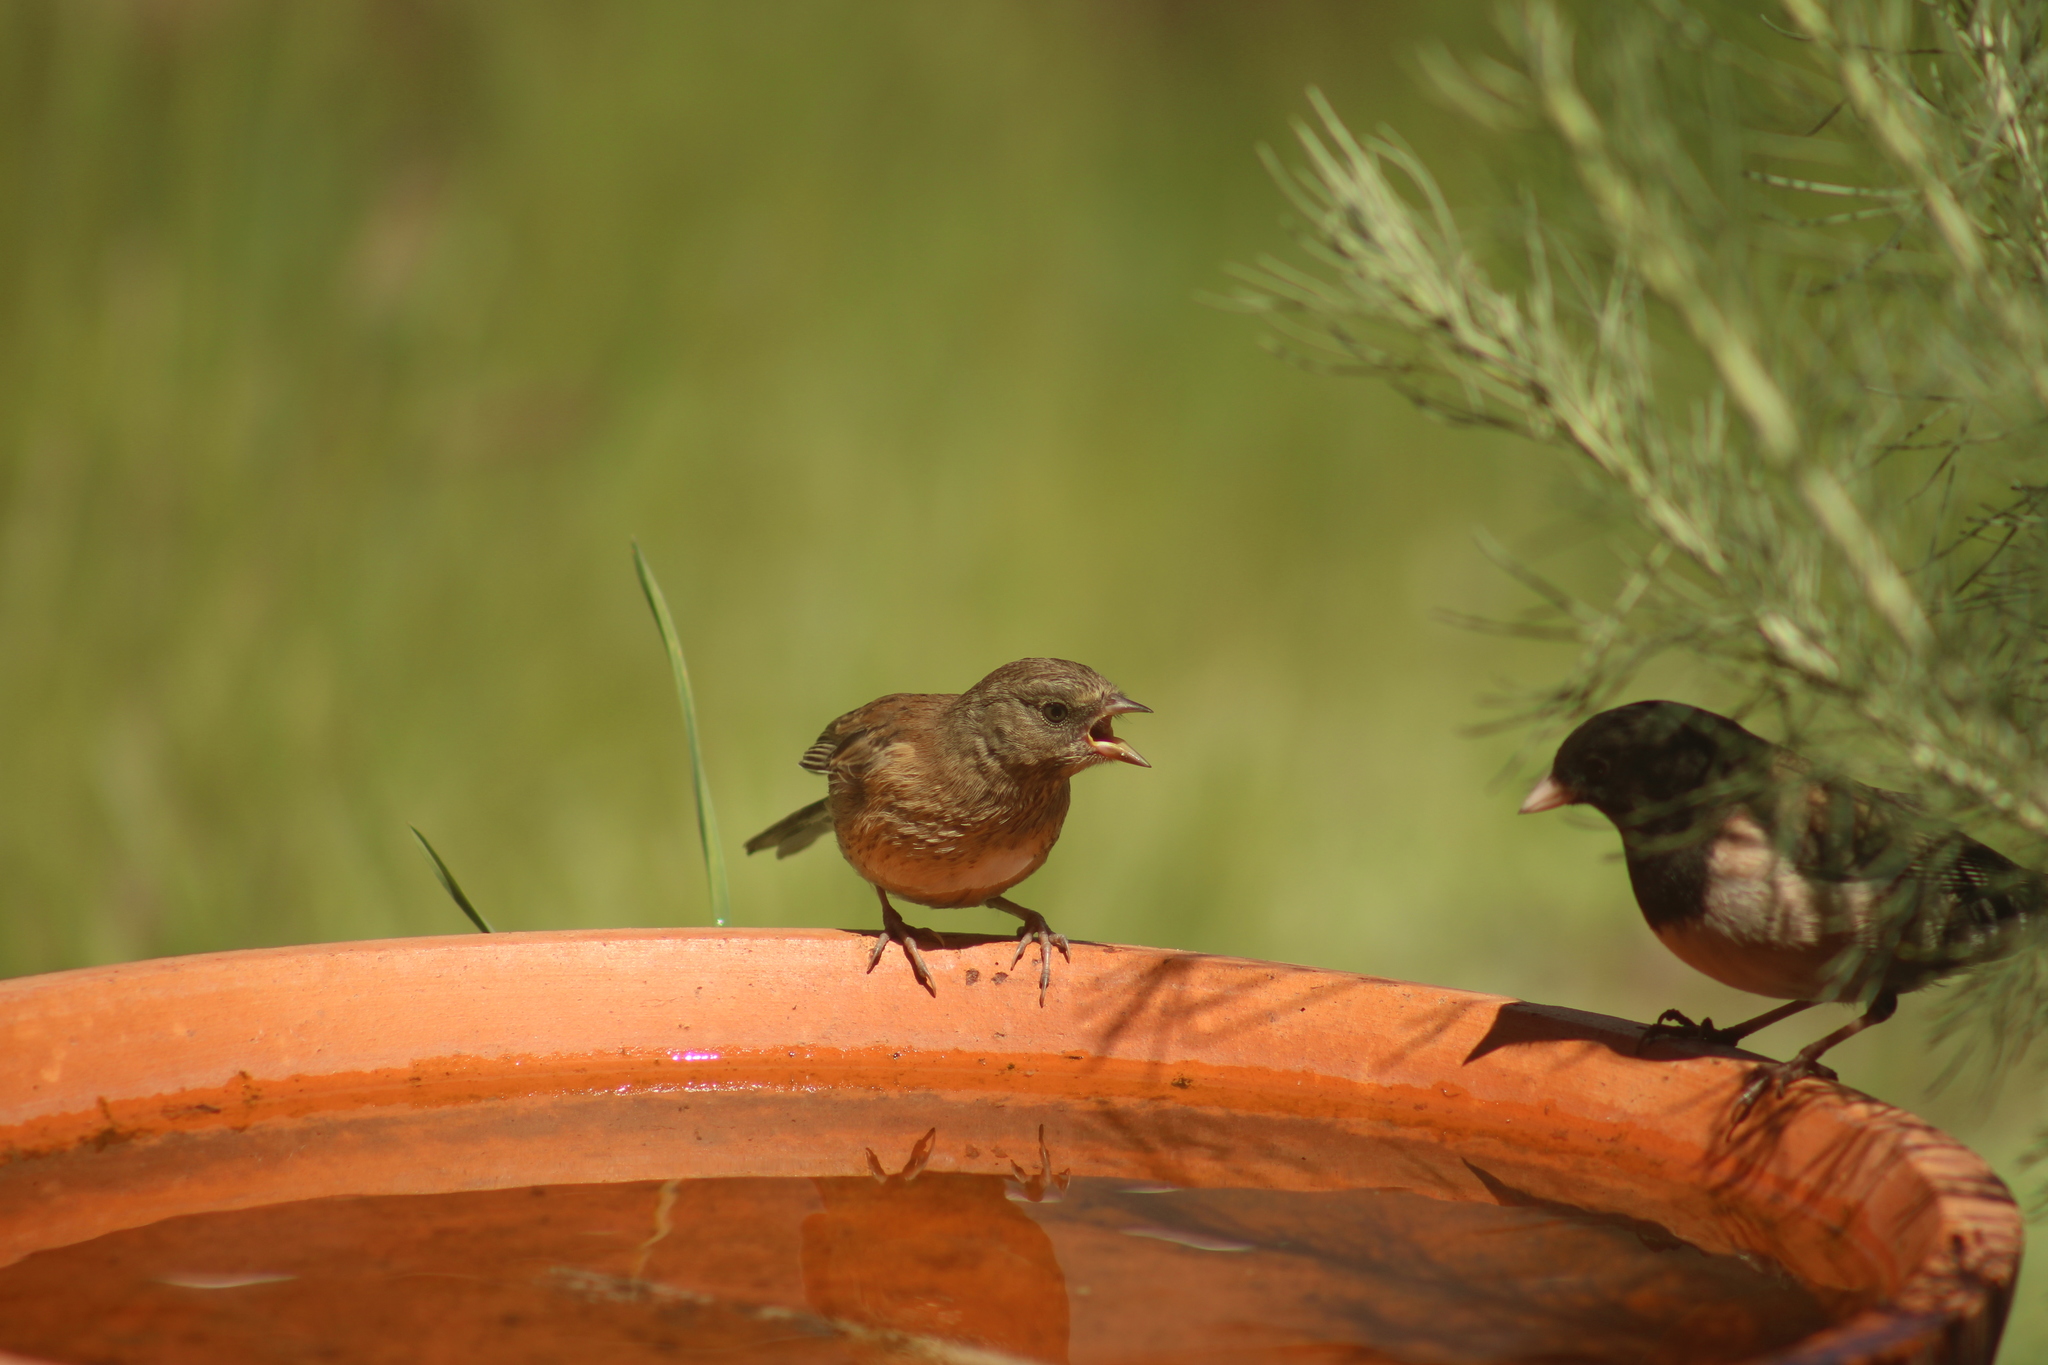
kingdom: Animalia
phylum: Chordata
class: Aves
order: Passeriformes
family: Passerellidae
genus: Junco
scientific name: Junco hyemalis
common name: Dark-eyed junco
